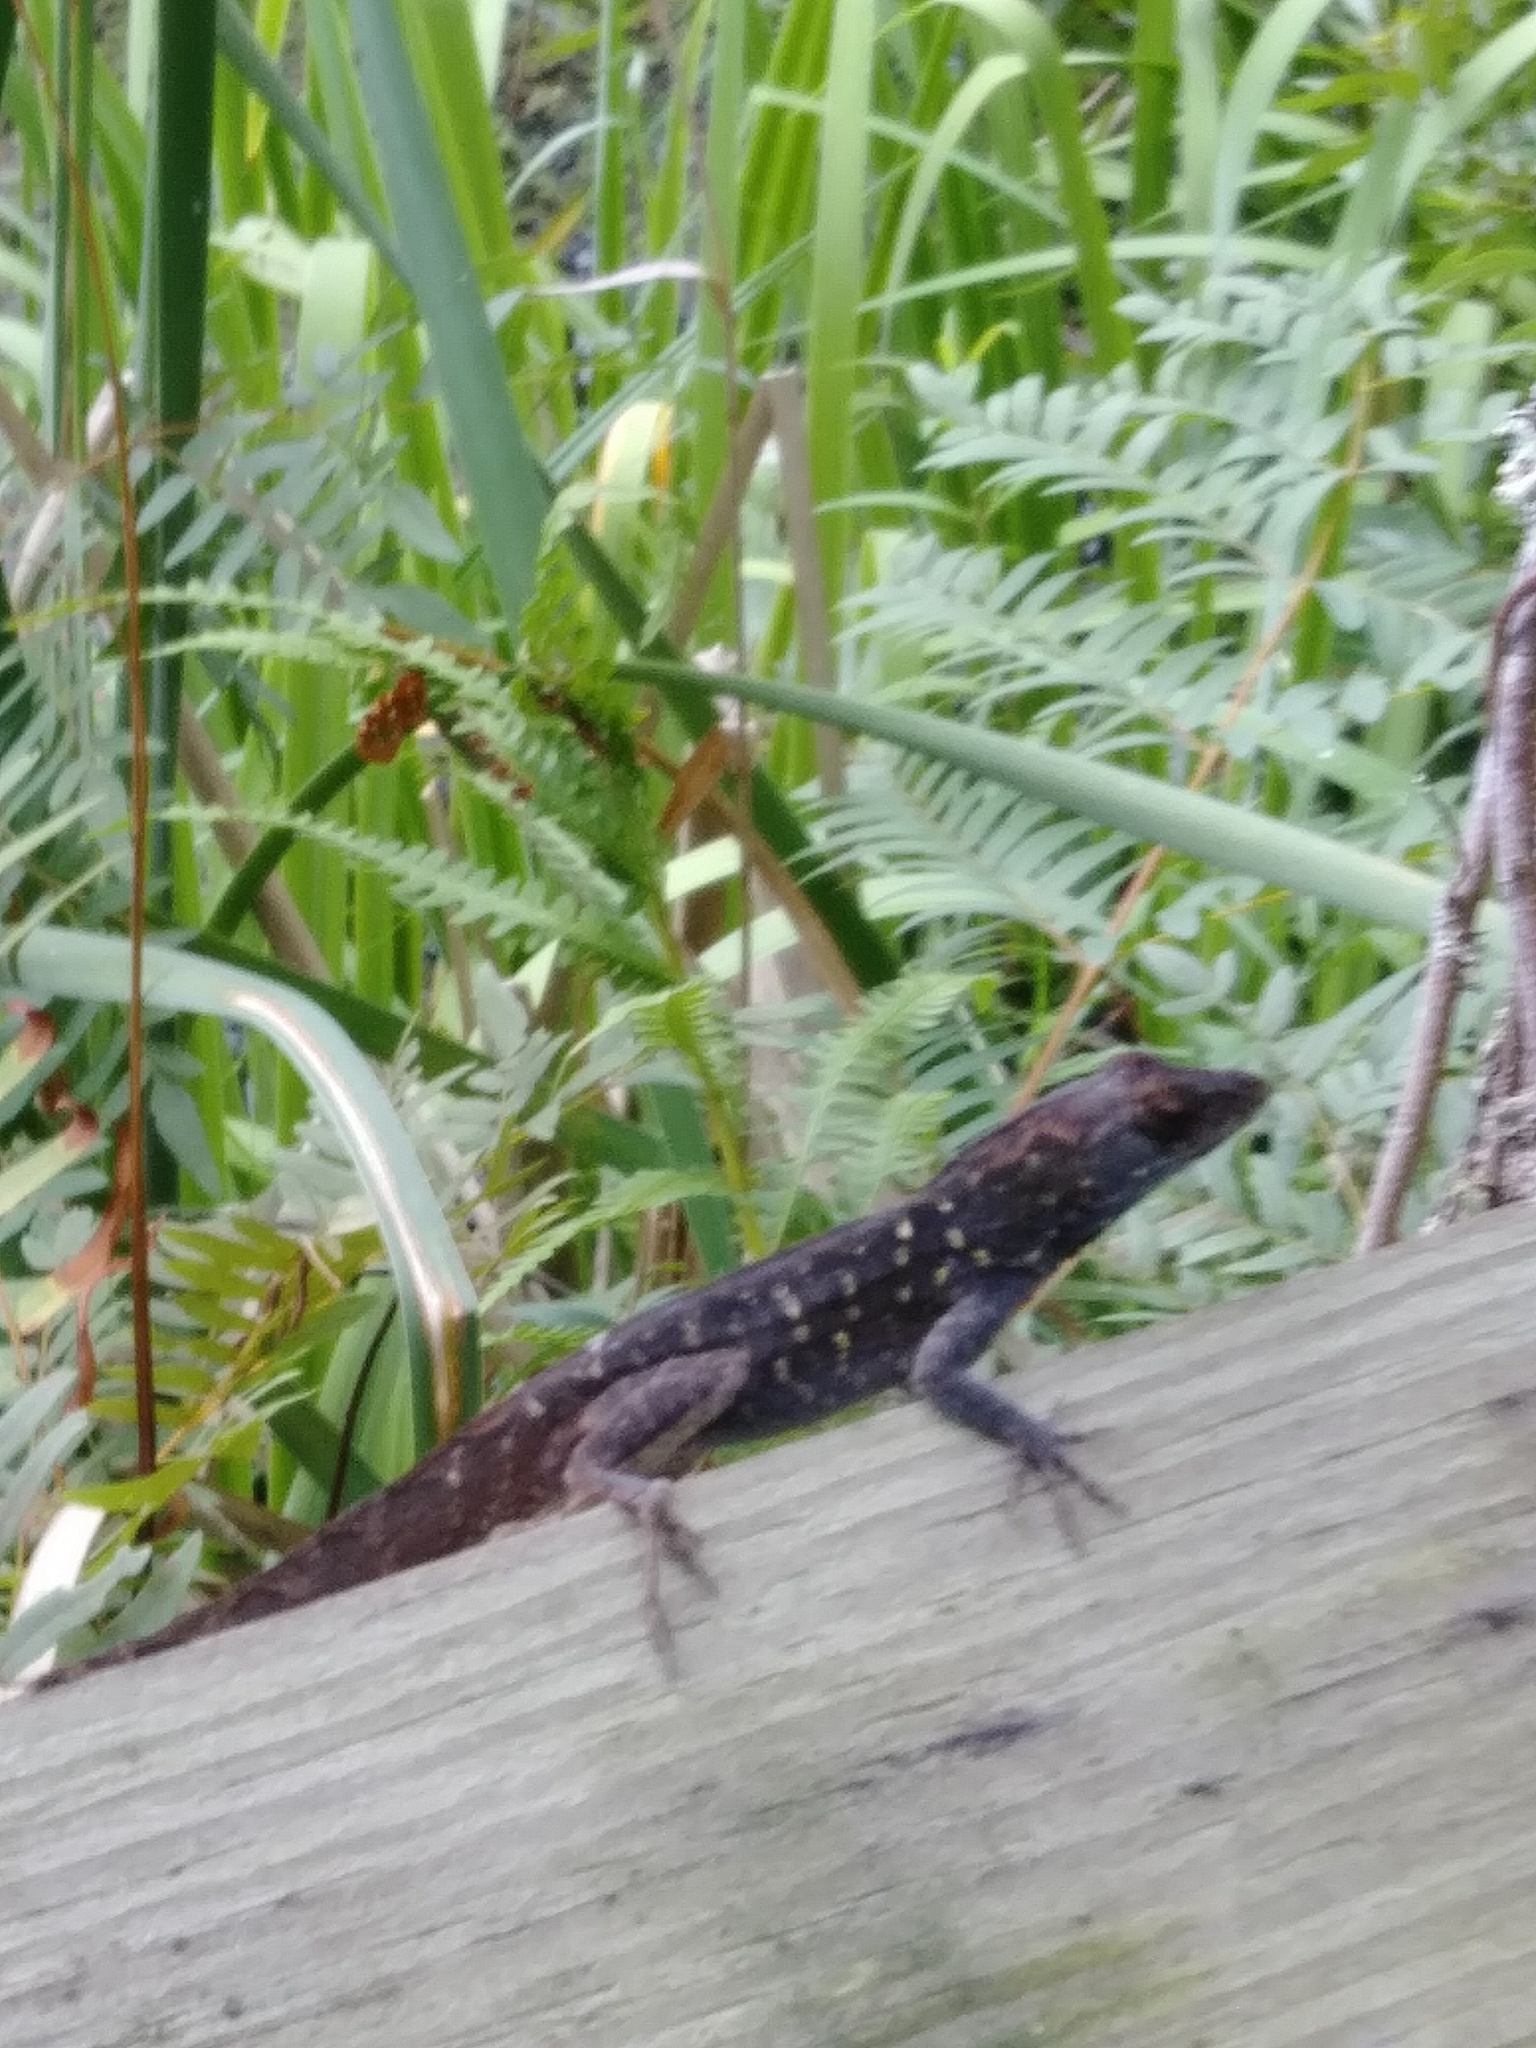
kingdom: Animalia
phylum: Chordata
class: Squamata
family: Dactyloidae
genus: Anolis
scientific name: Anolis sagrei
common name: Brown anole
